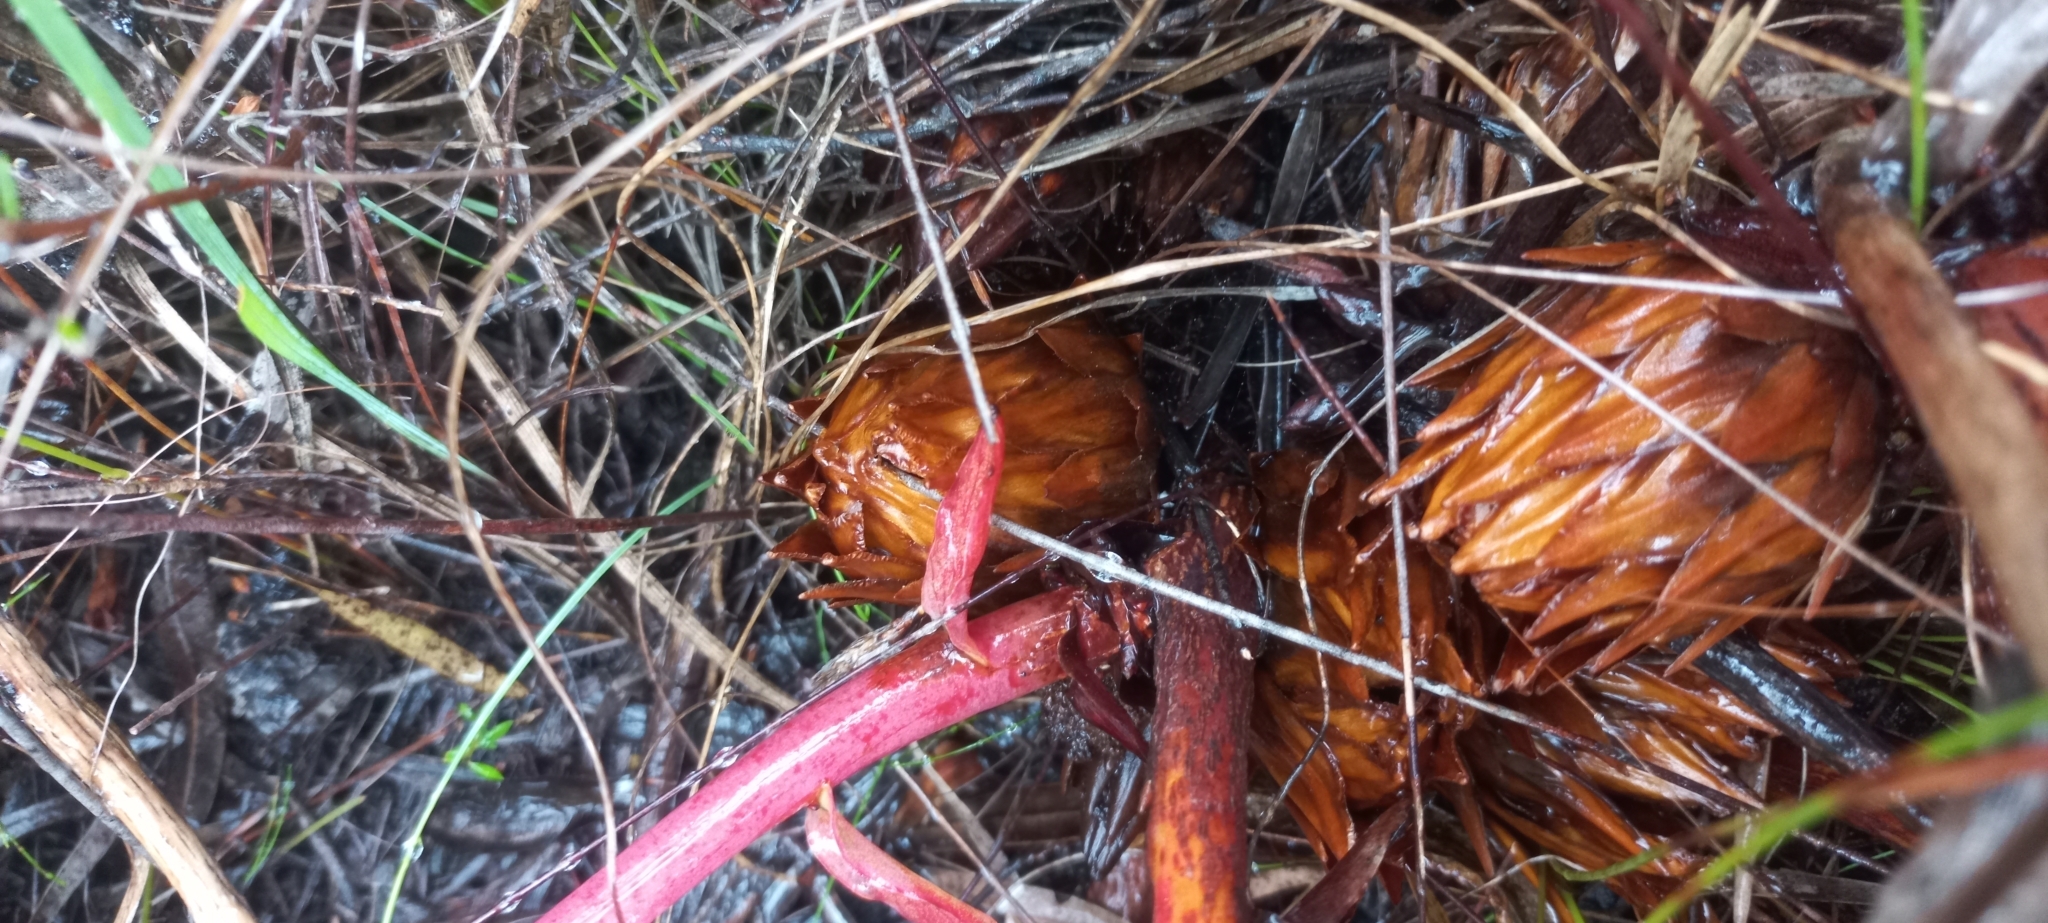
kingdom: Plantae
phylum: Tracheophyta
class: Magnoliopsida
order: Proteales
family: Proteaceae
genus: Protea
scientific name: Protea cordata
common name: Heart-leaf sugarbush
